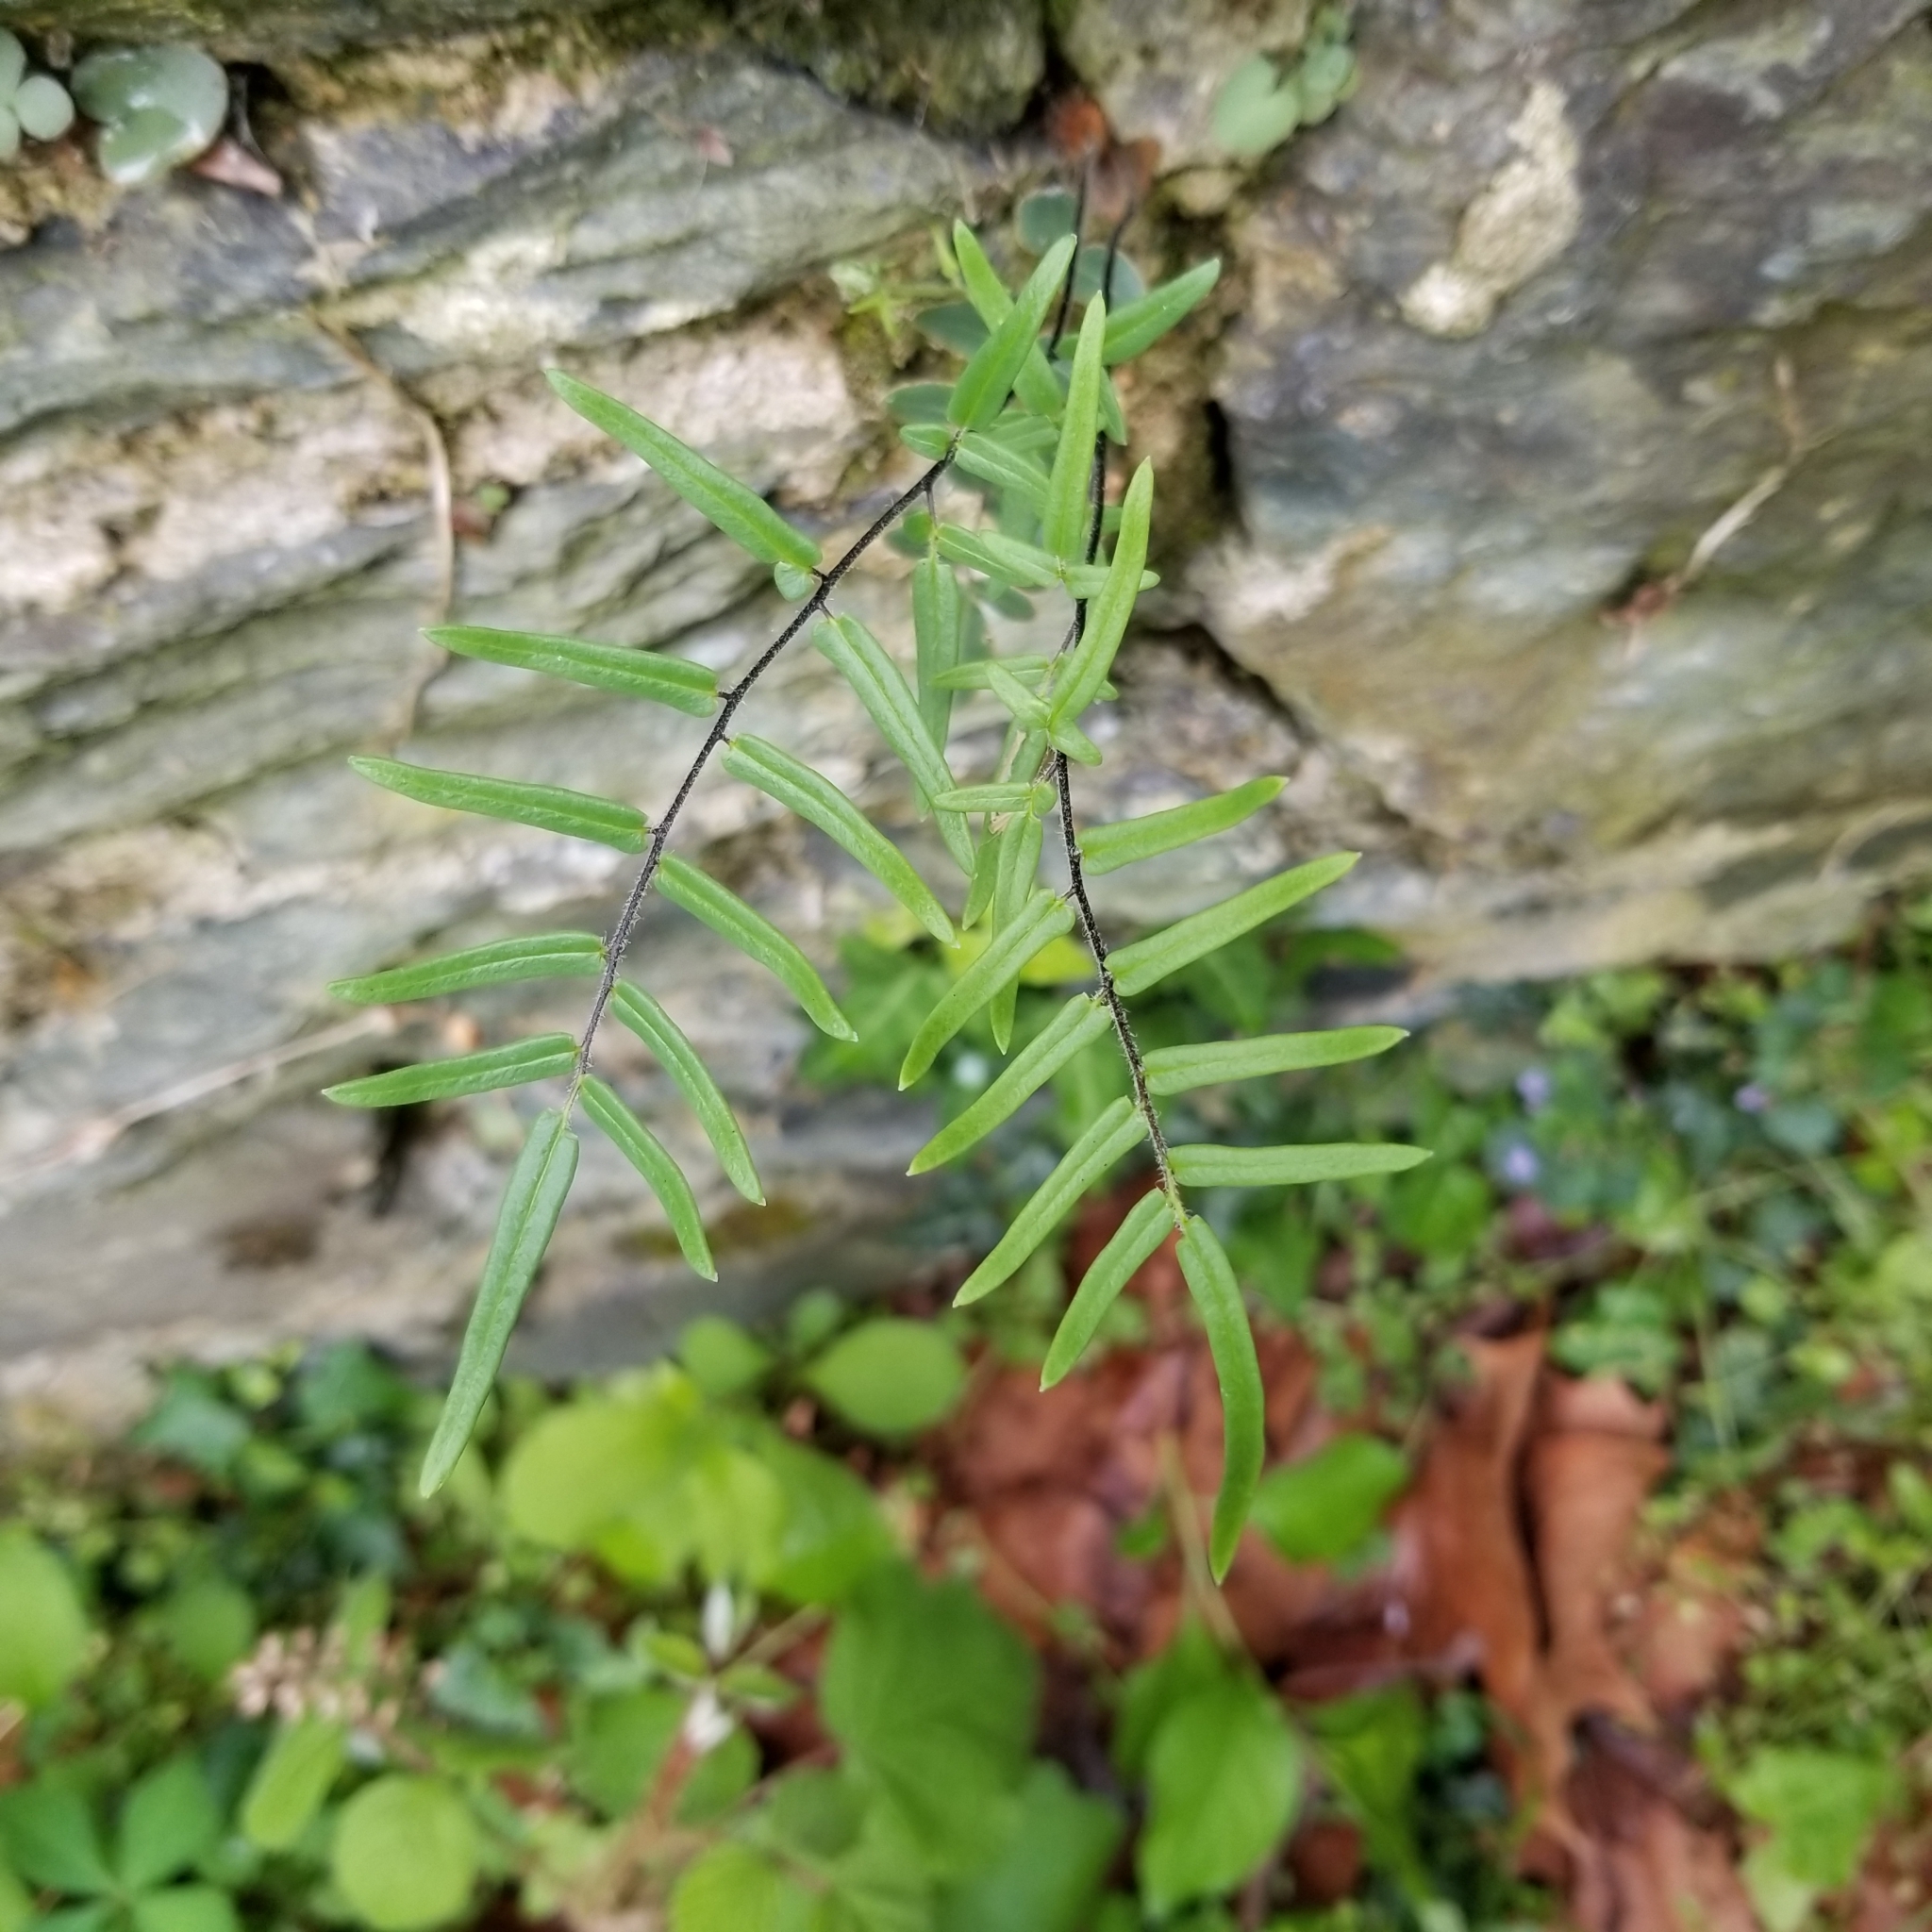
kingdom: Plantae
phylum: Tracheophyta
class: Polypodiopsida
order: Polypodiales
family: Pteridaceae
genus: Pellaea
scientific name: Pellaea atropurpurea
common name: Hairy cliffbrake
